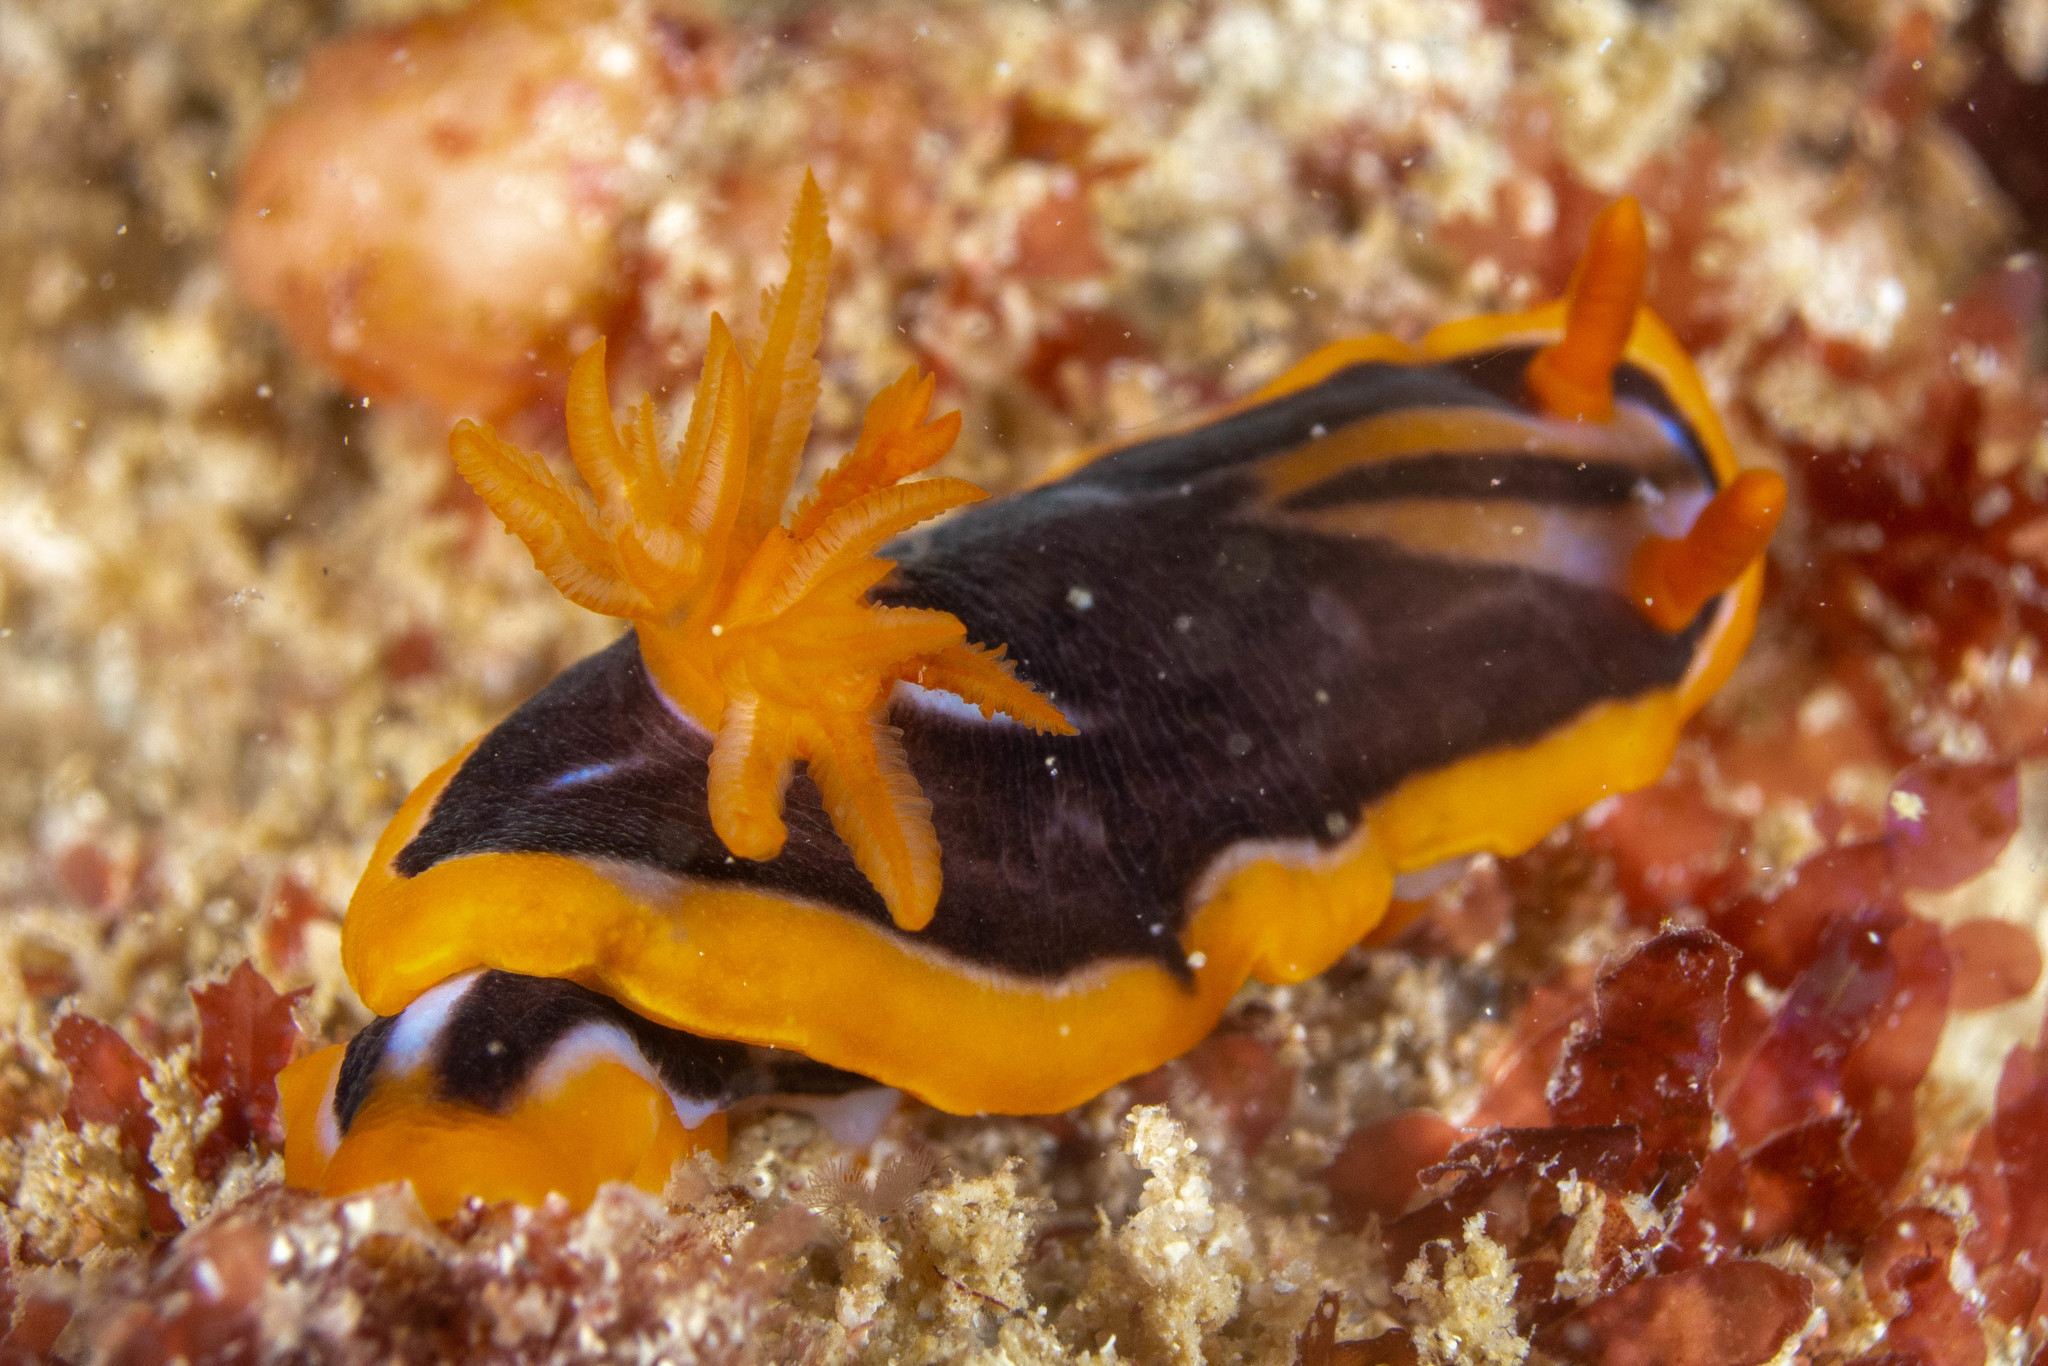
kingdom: Animalia
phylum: Mollusca
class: Gastropoda
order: Nudibranchia
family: Chromodorididae
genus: Chromodoris
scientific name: Chromodoris colemani
